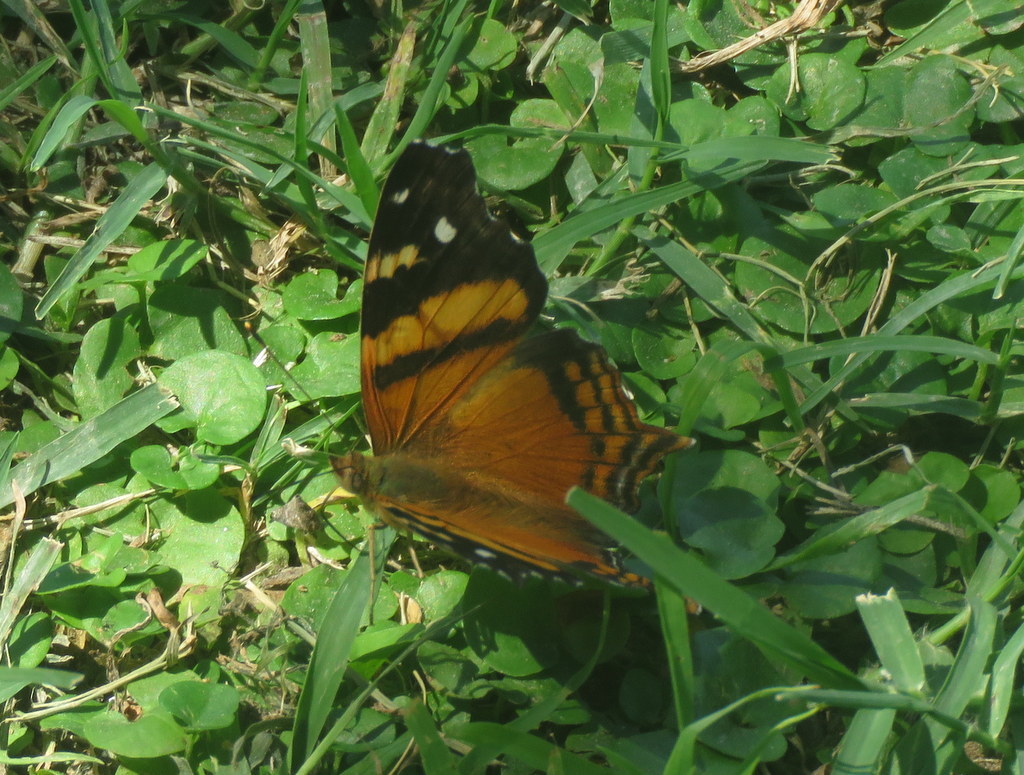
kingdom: Animalia
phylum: Arthropoda
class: Insecta
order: Lepidoptera
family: Nymphalidae
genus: Hypanartia
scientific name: Hypanartia bella
